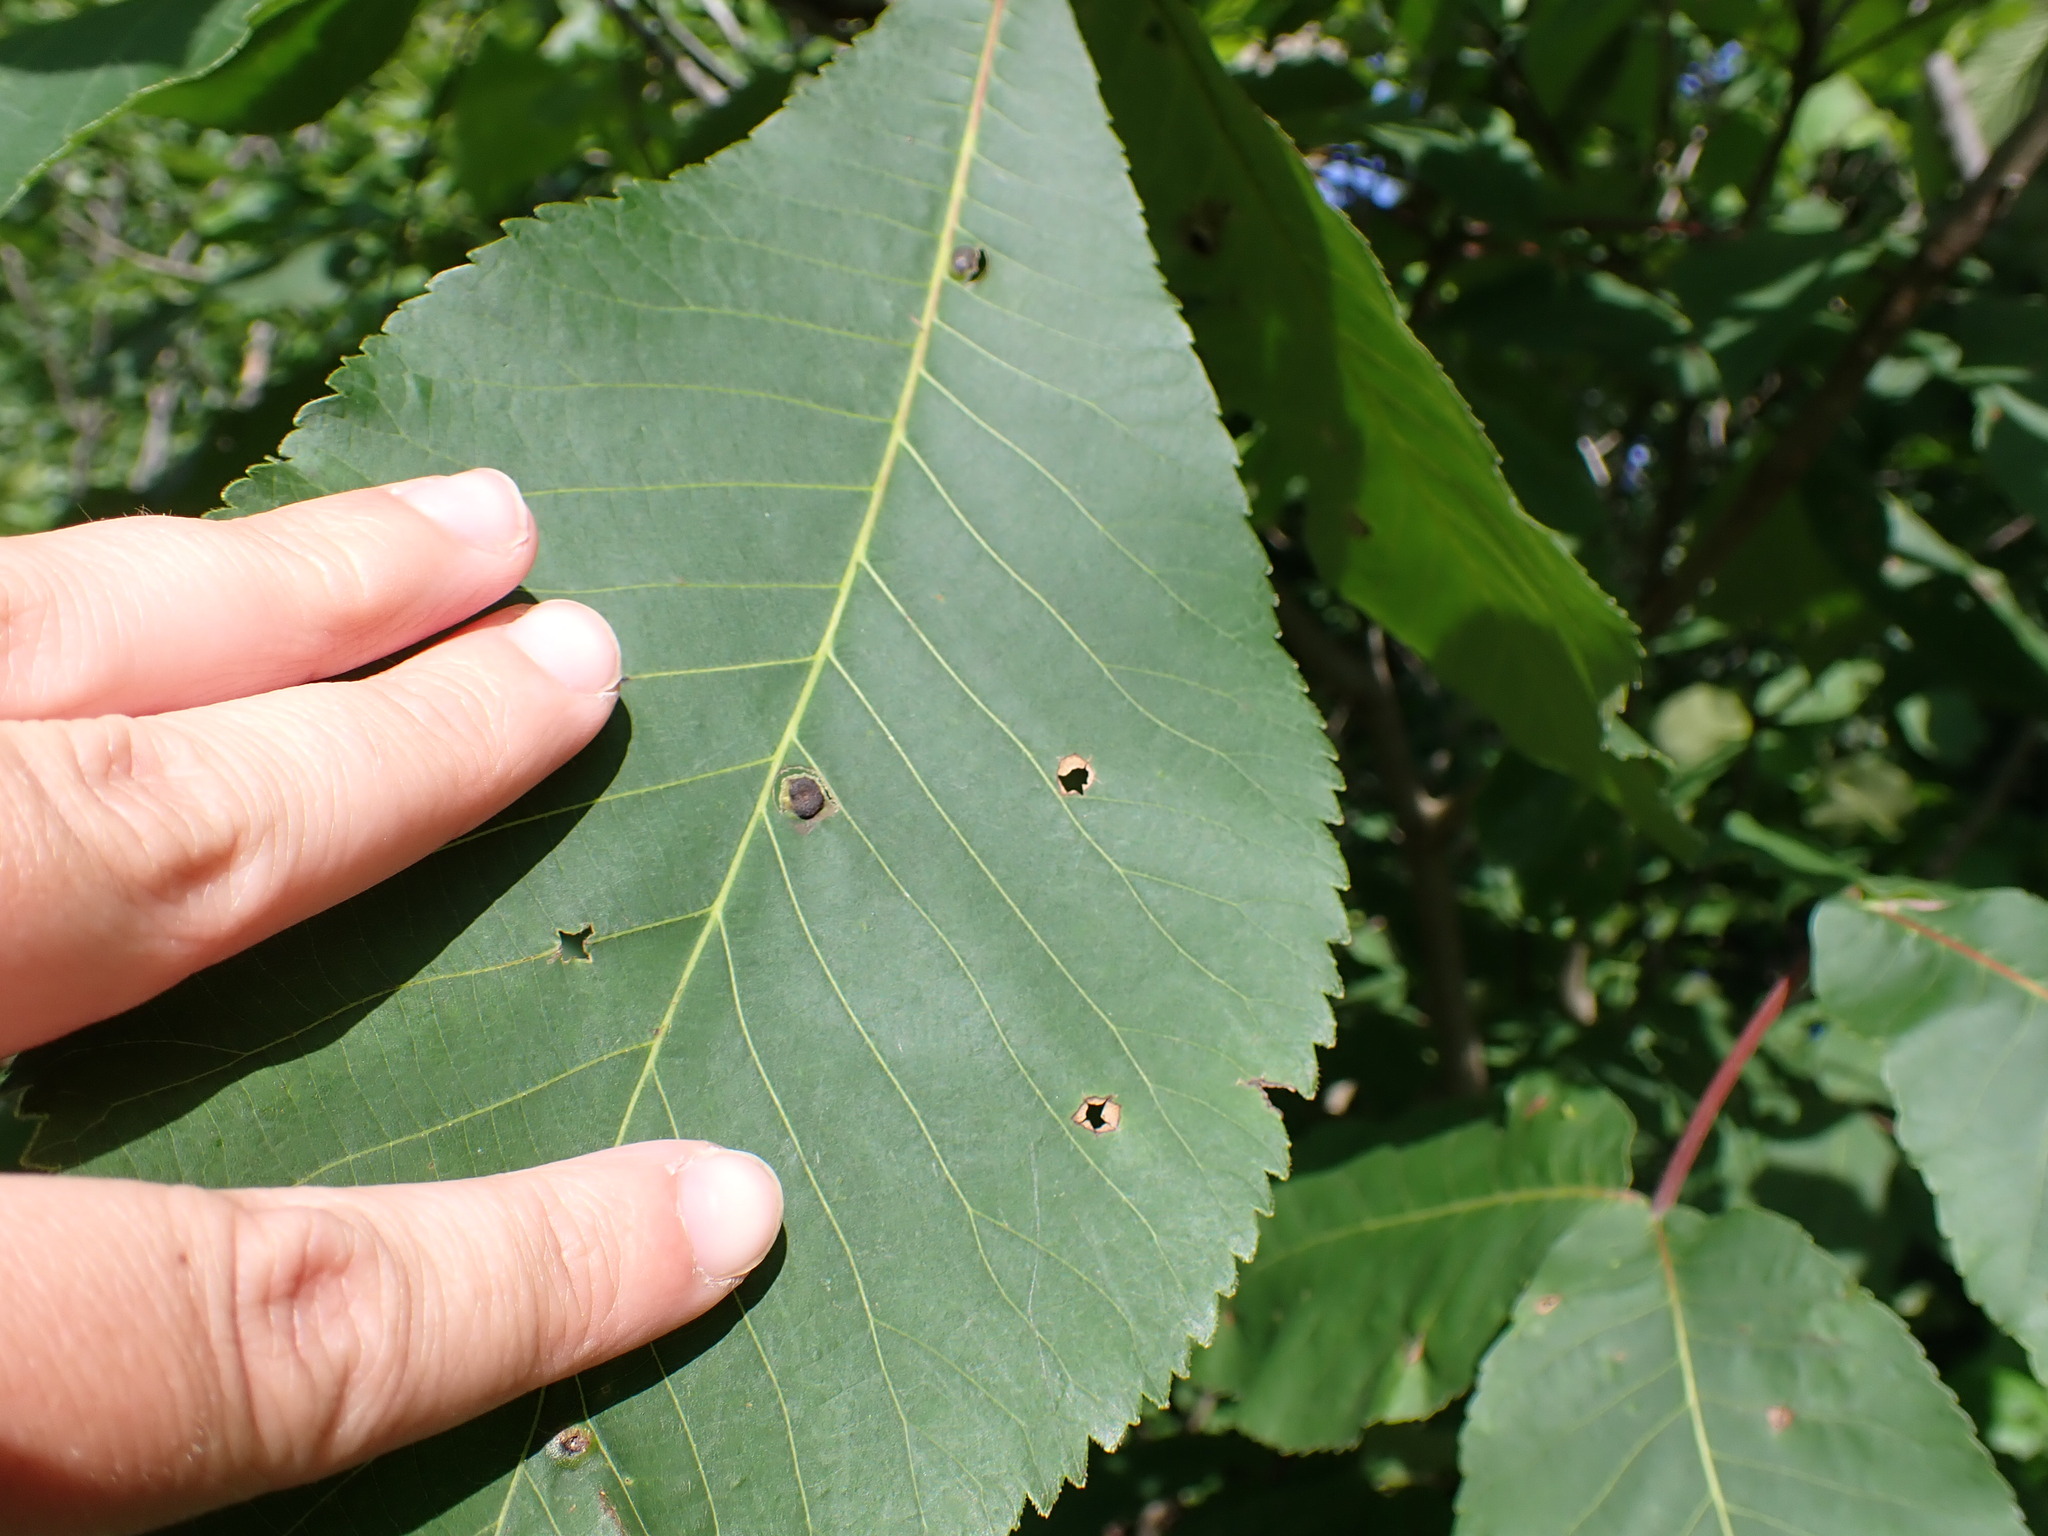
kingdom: Animalia
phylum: Arthropoda
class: Insecta
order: Hemiptera
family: Phylloxeridae
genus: Phylloxera
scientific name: Phylloxera caryae-semen
